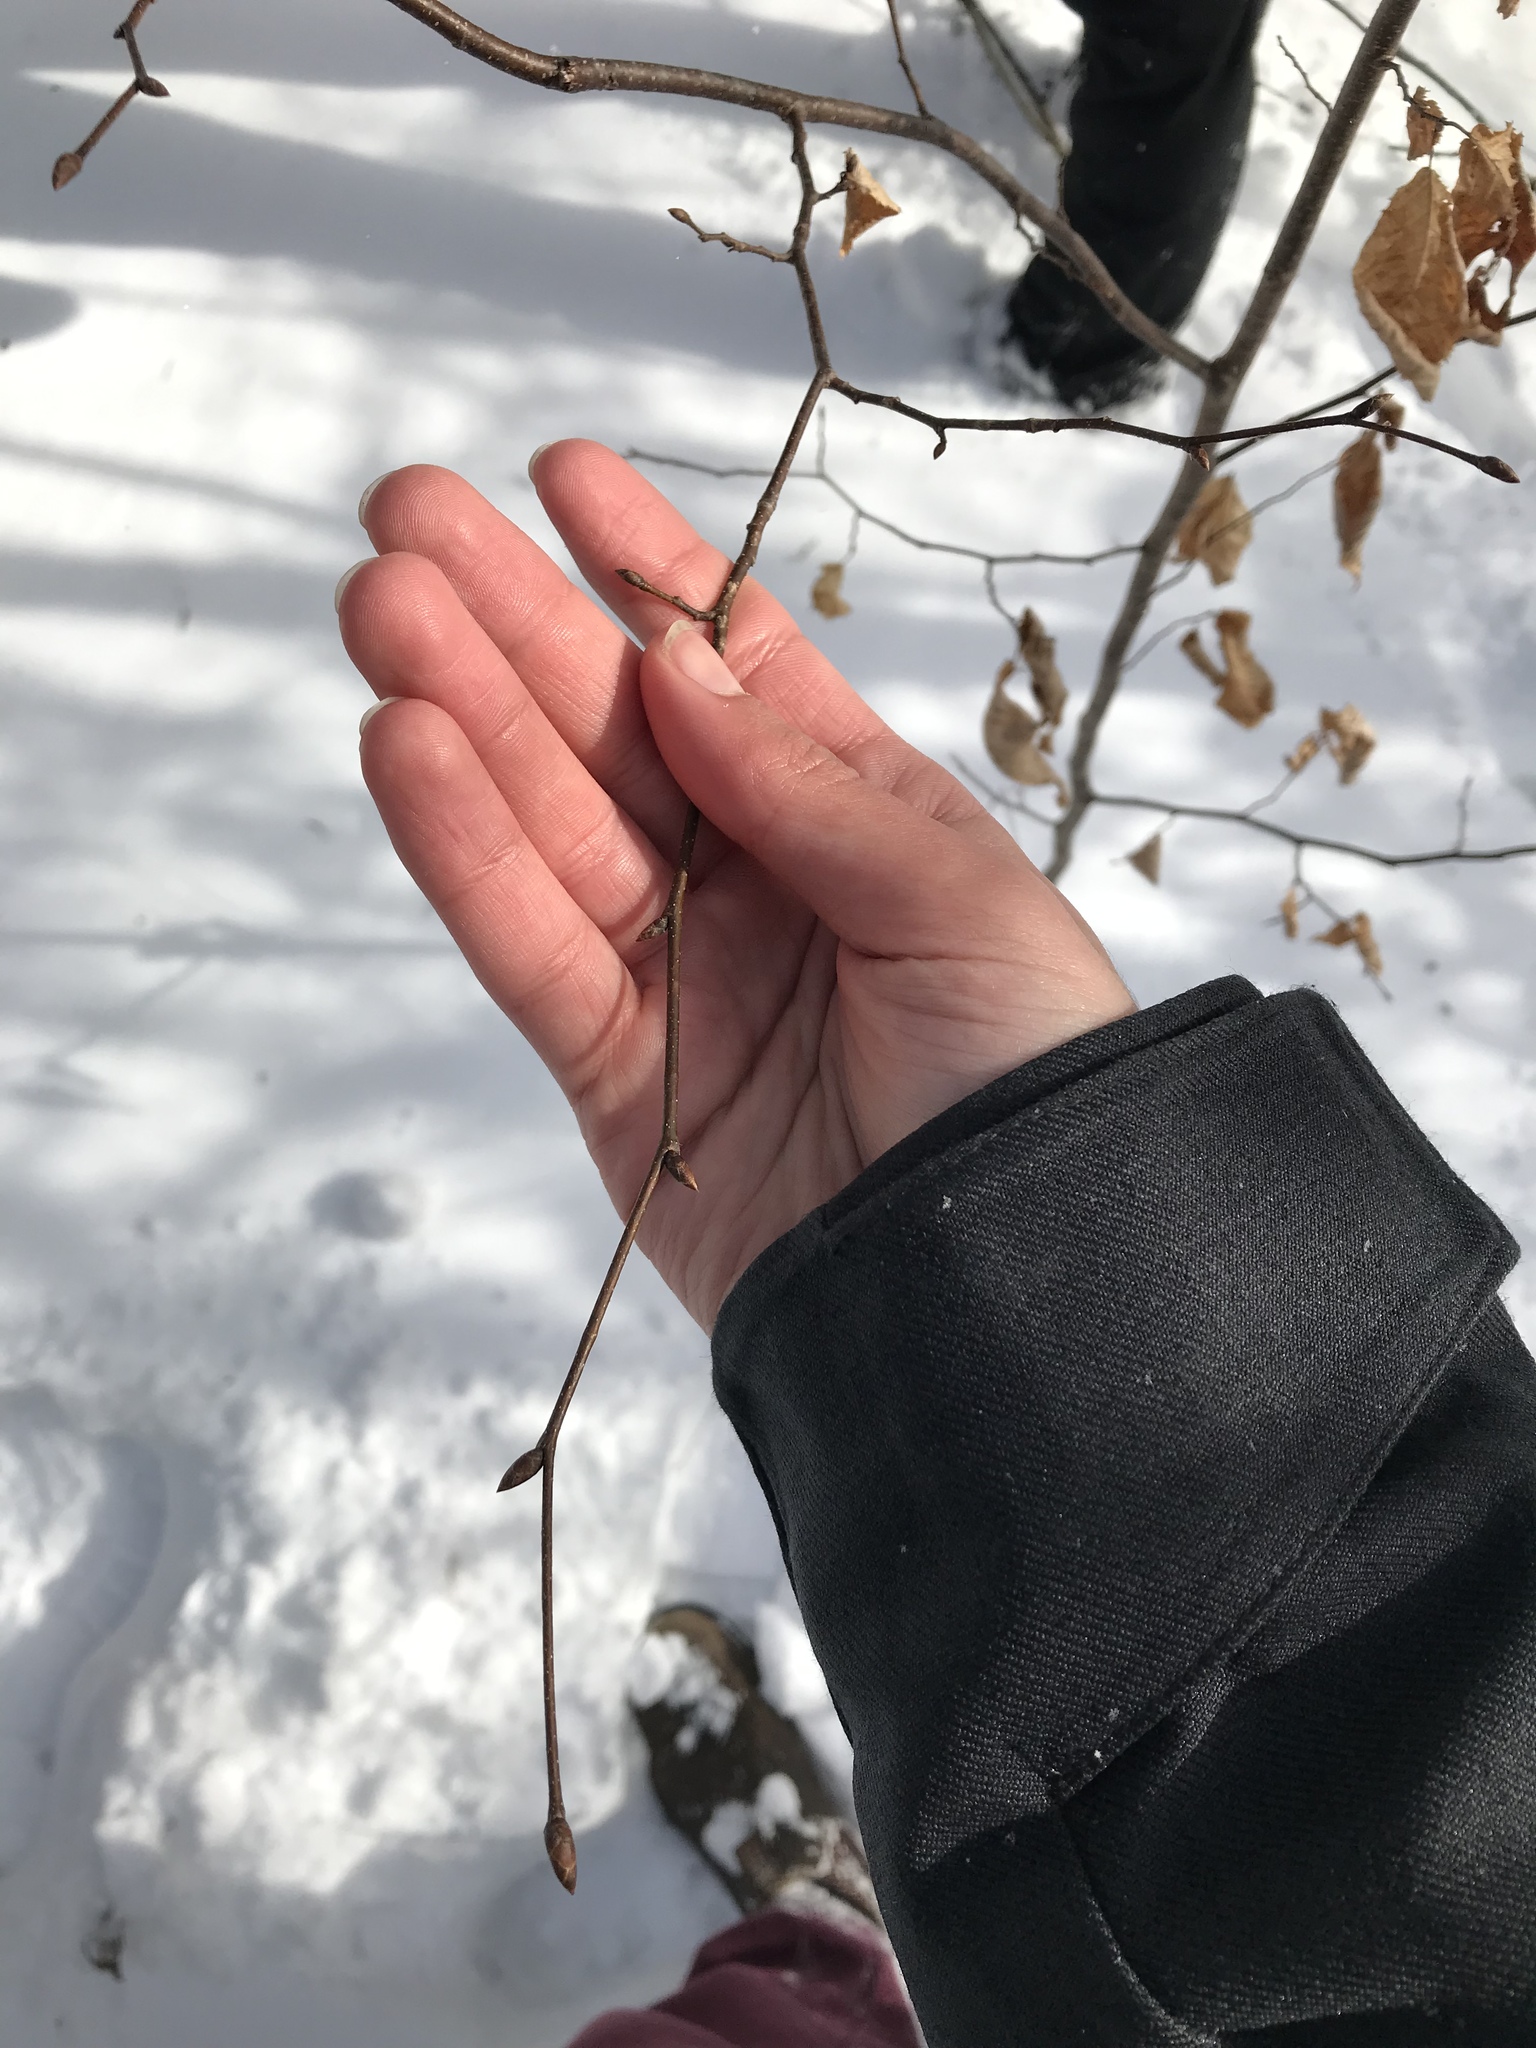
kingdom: Plantae
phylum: Tracheophyta
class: Magnoliopsida
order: Fagales
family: Betulaceae
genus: Ostrya
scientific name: Ostrya virginiana
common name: Ironwood
